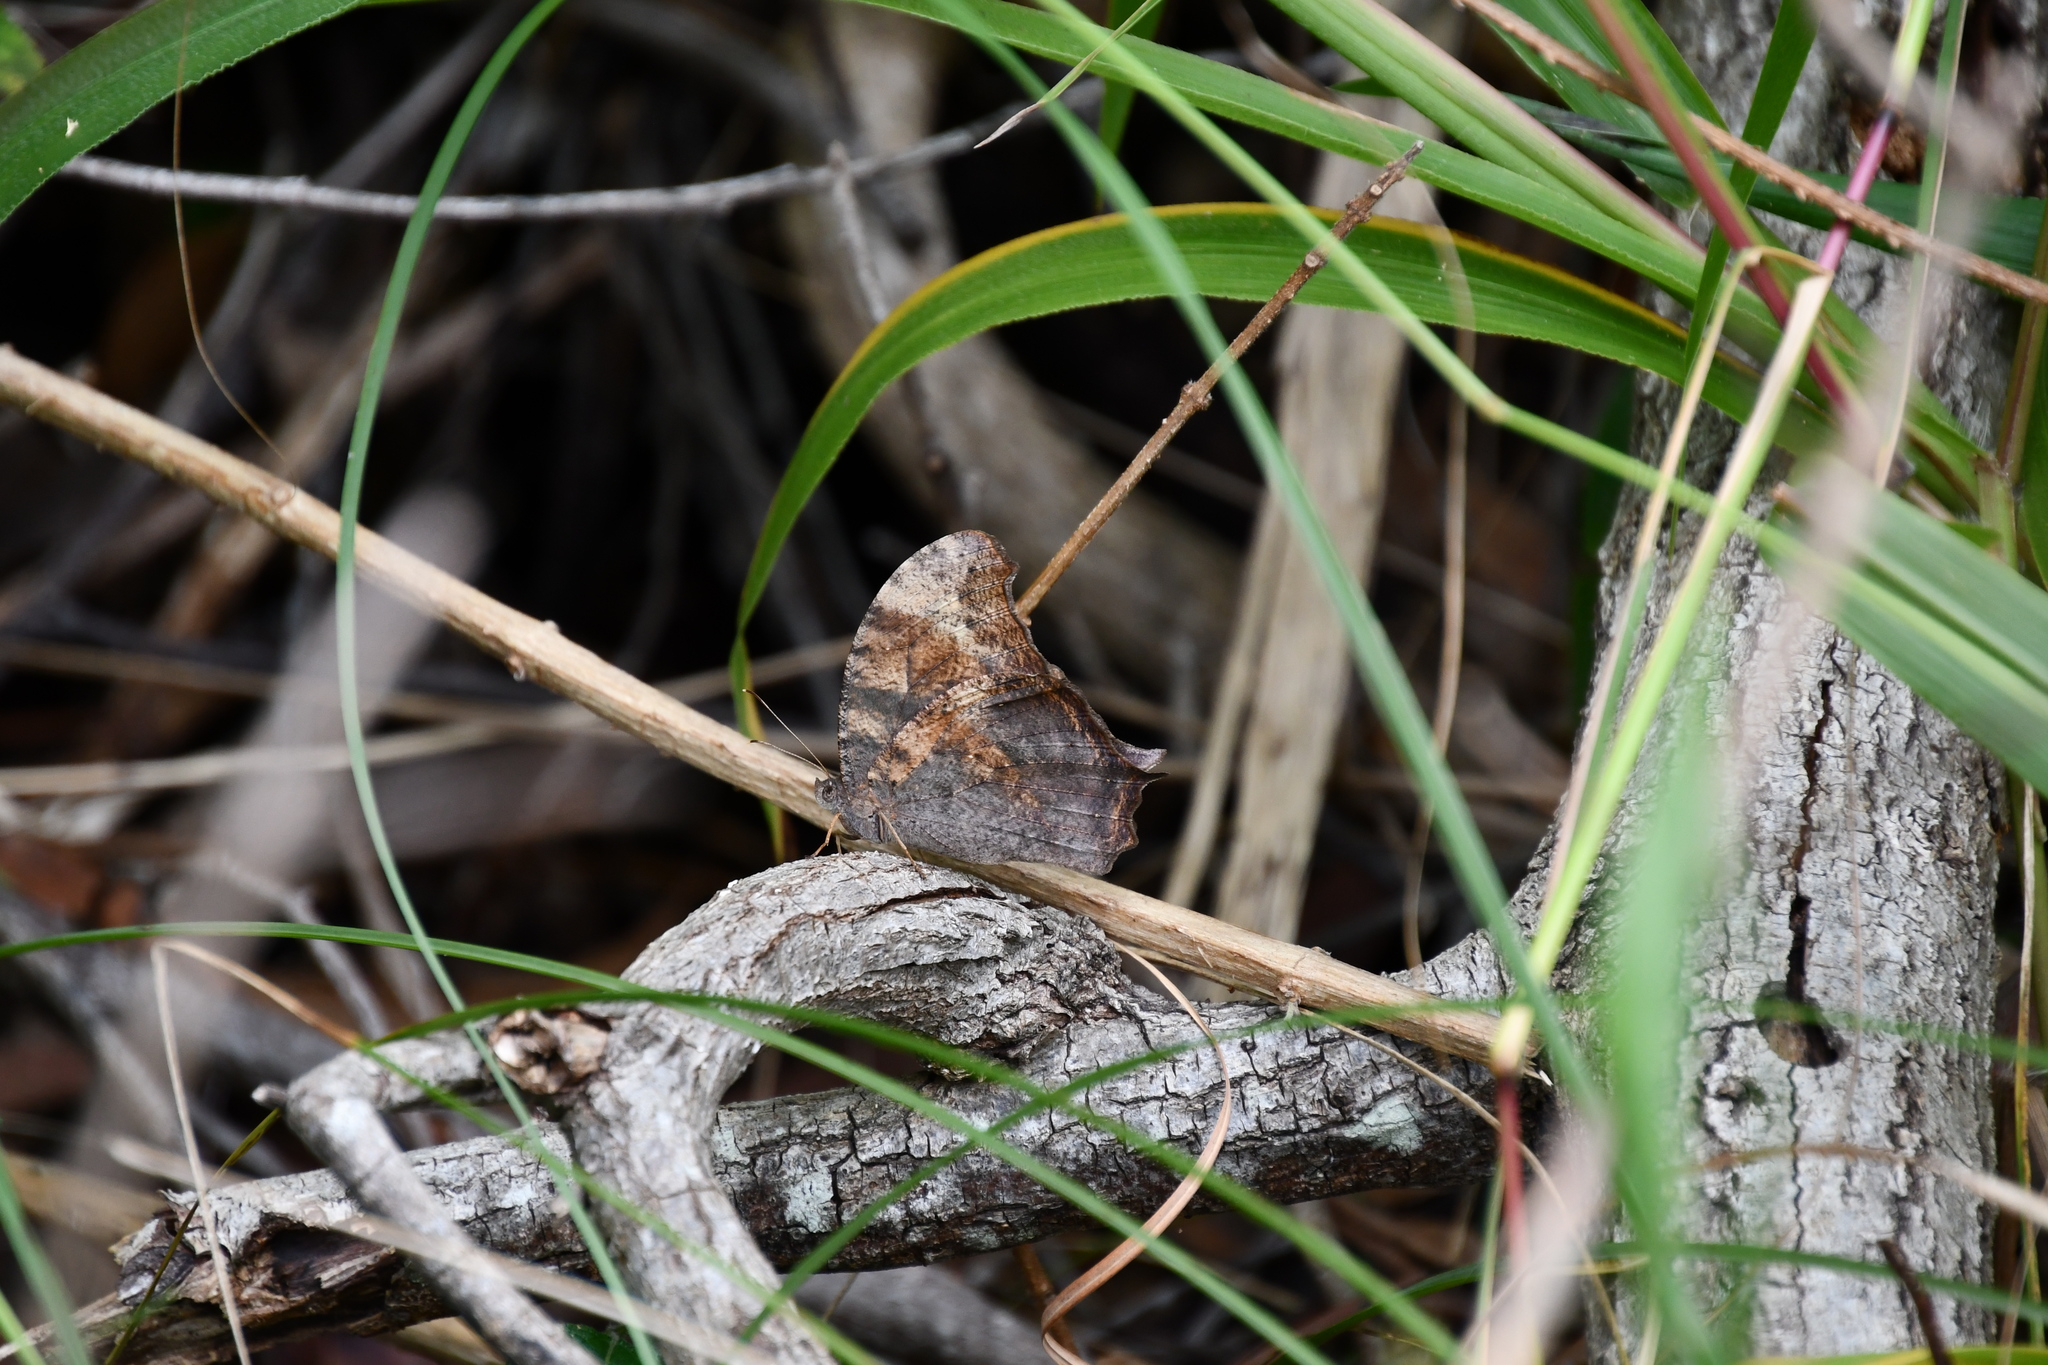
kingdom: Animalia
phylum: Arthropoda
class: Insecta
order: Lepidoptera
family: Nymphalidae
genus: Melanitis
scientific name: Melanitis leda
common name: Twilight brown
